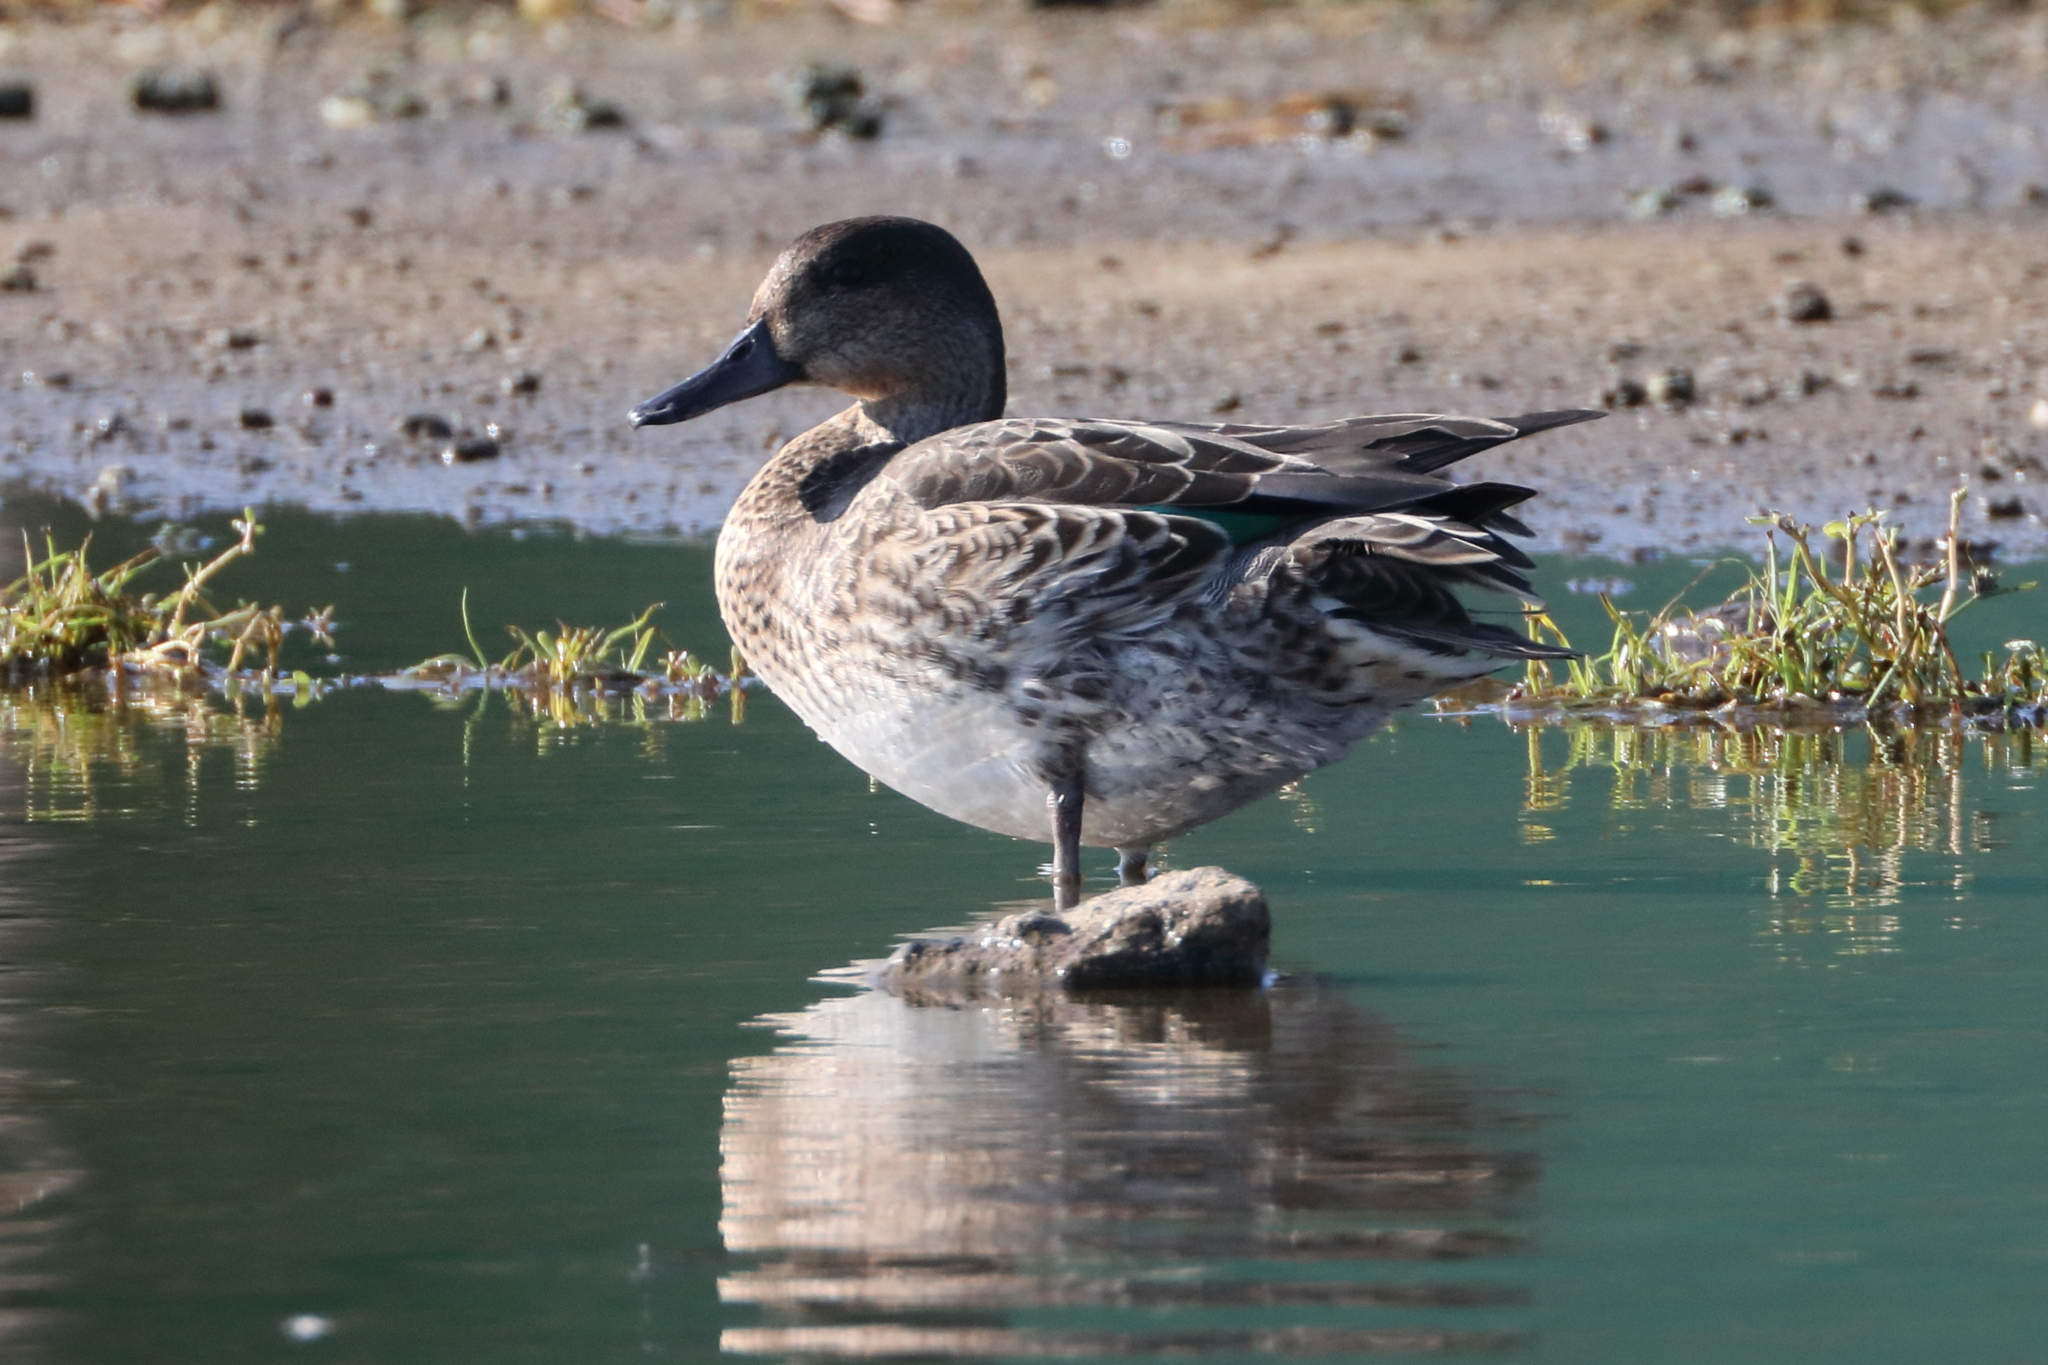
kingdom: Animalia
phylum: Chordata
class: Aves
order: Anseriformes
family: Anatidae
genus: Anas
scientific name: Anas crecca
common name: Eurasian teal
